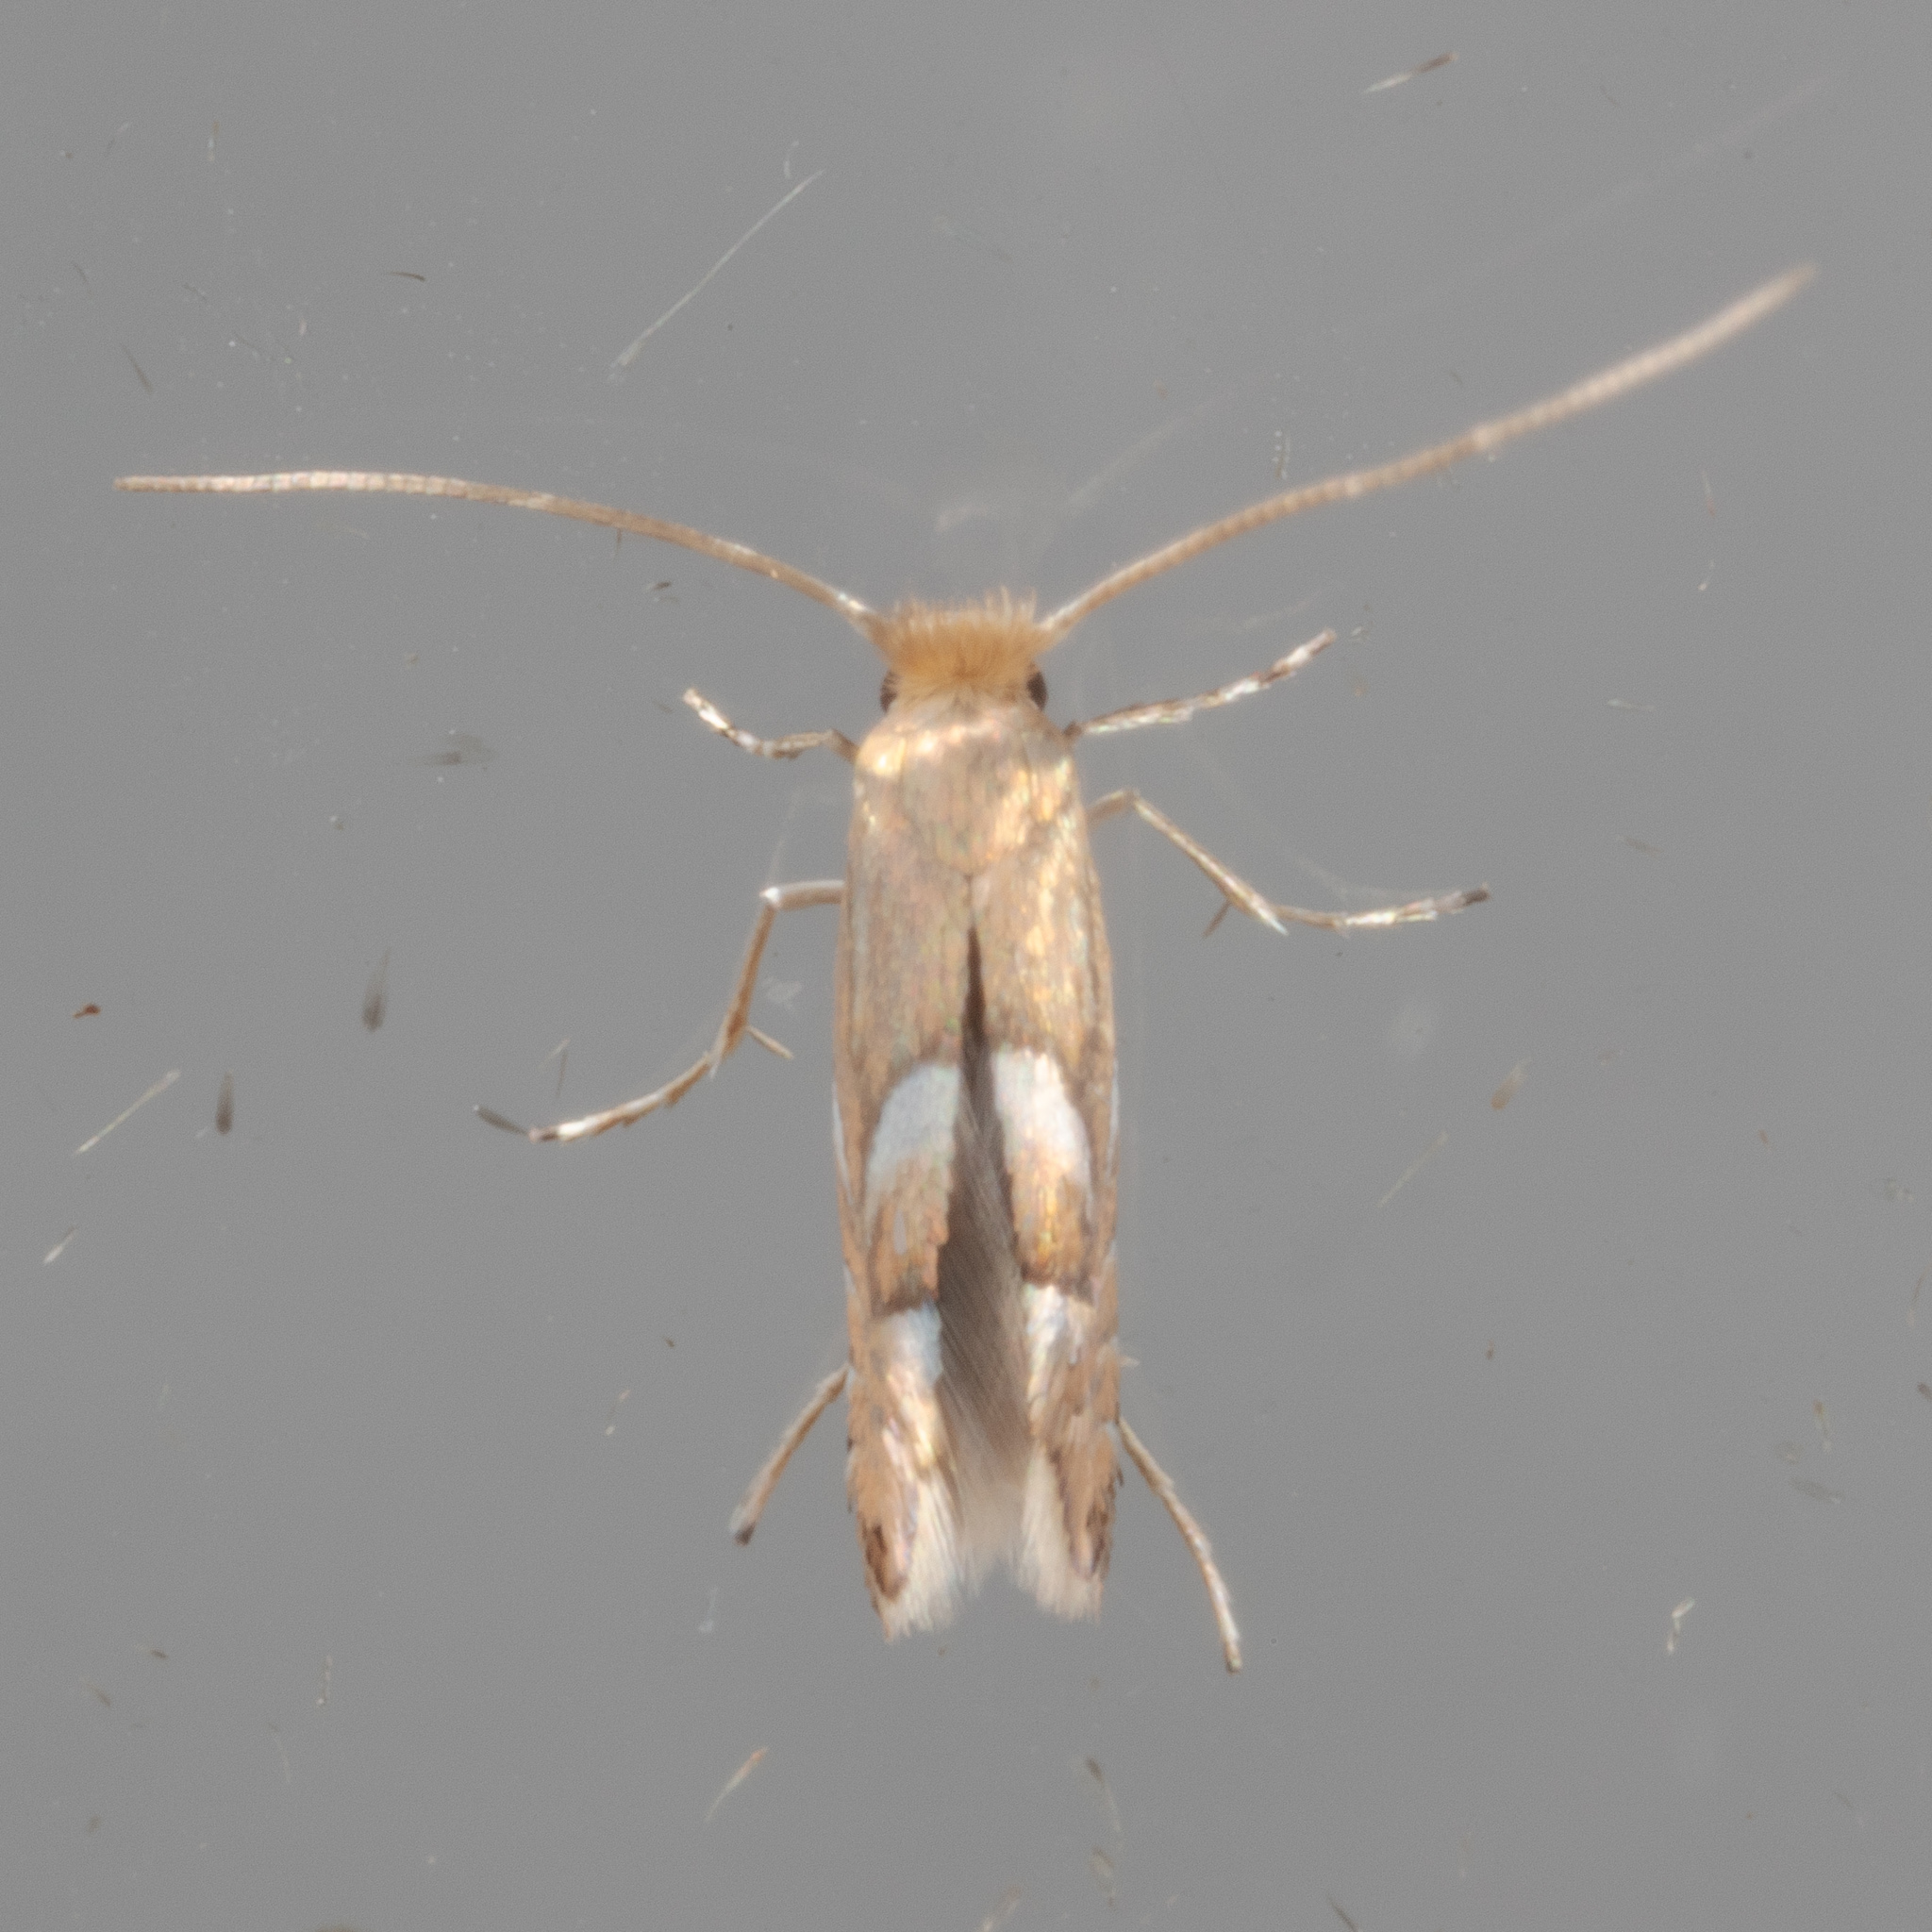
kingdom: Animalia
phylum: Arthropoda
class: Insecta
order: Lepidoptera
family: Gracillariidae
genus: Phyllonorycter
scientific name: Phyllonorycter aeriferella
